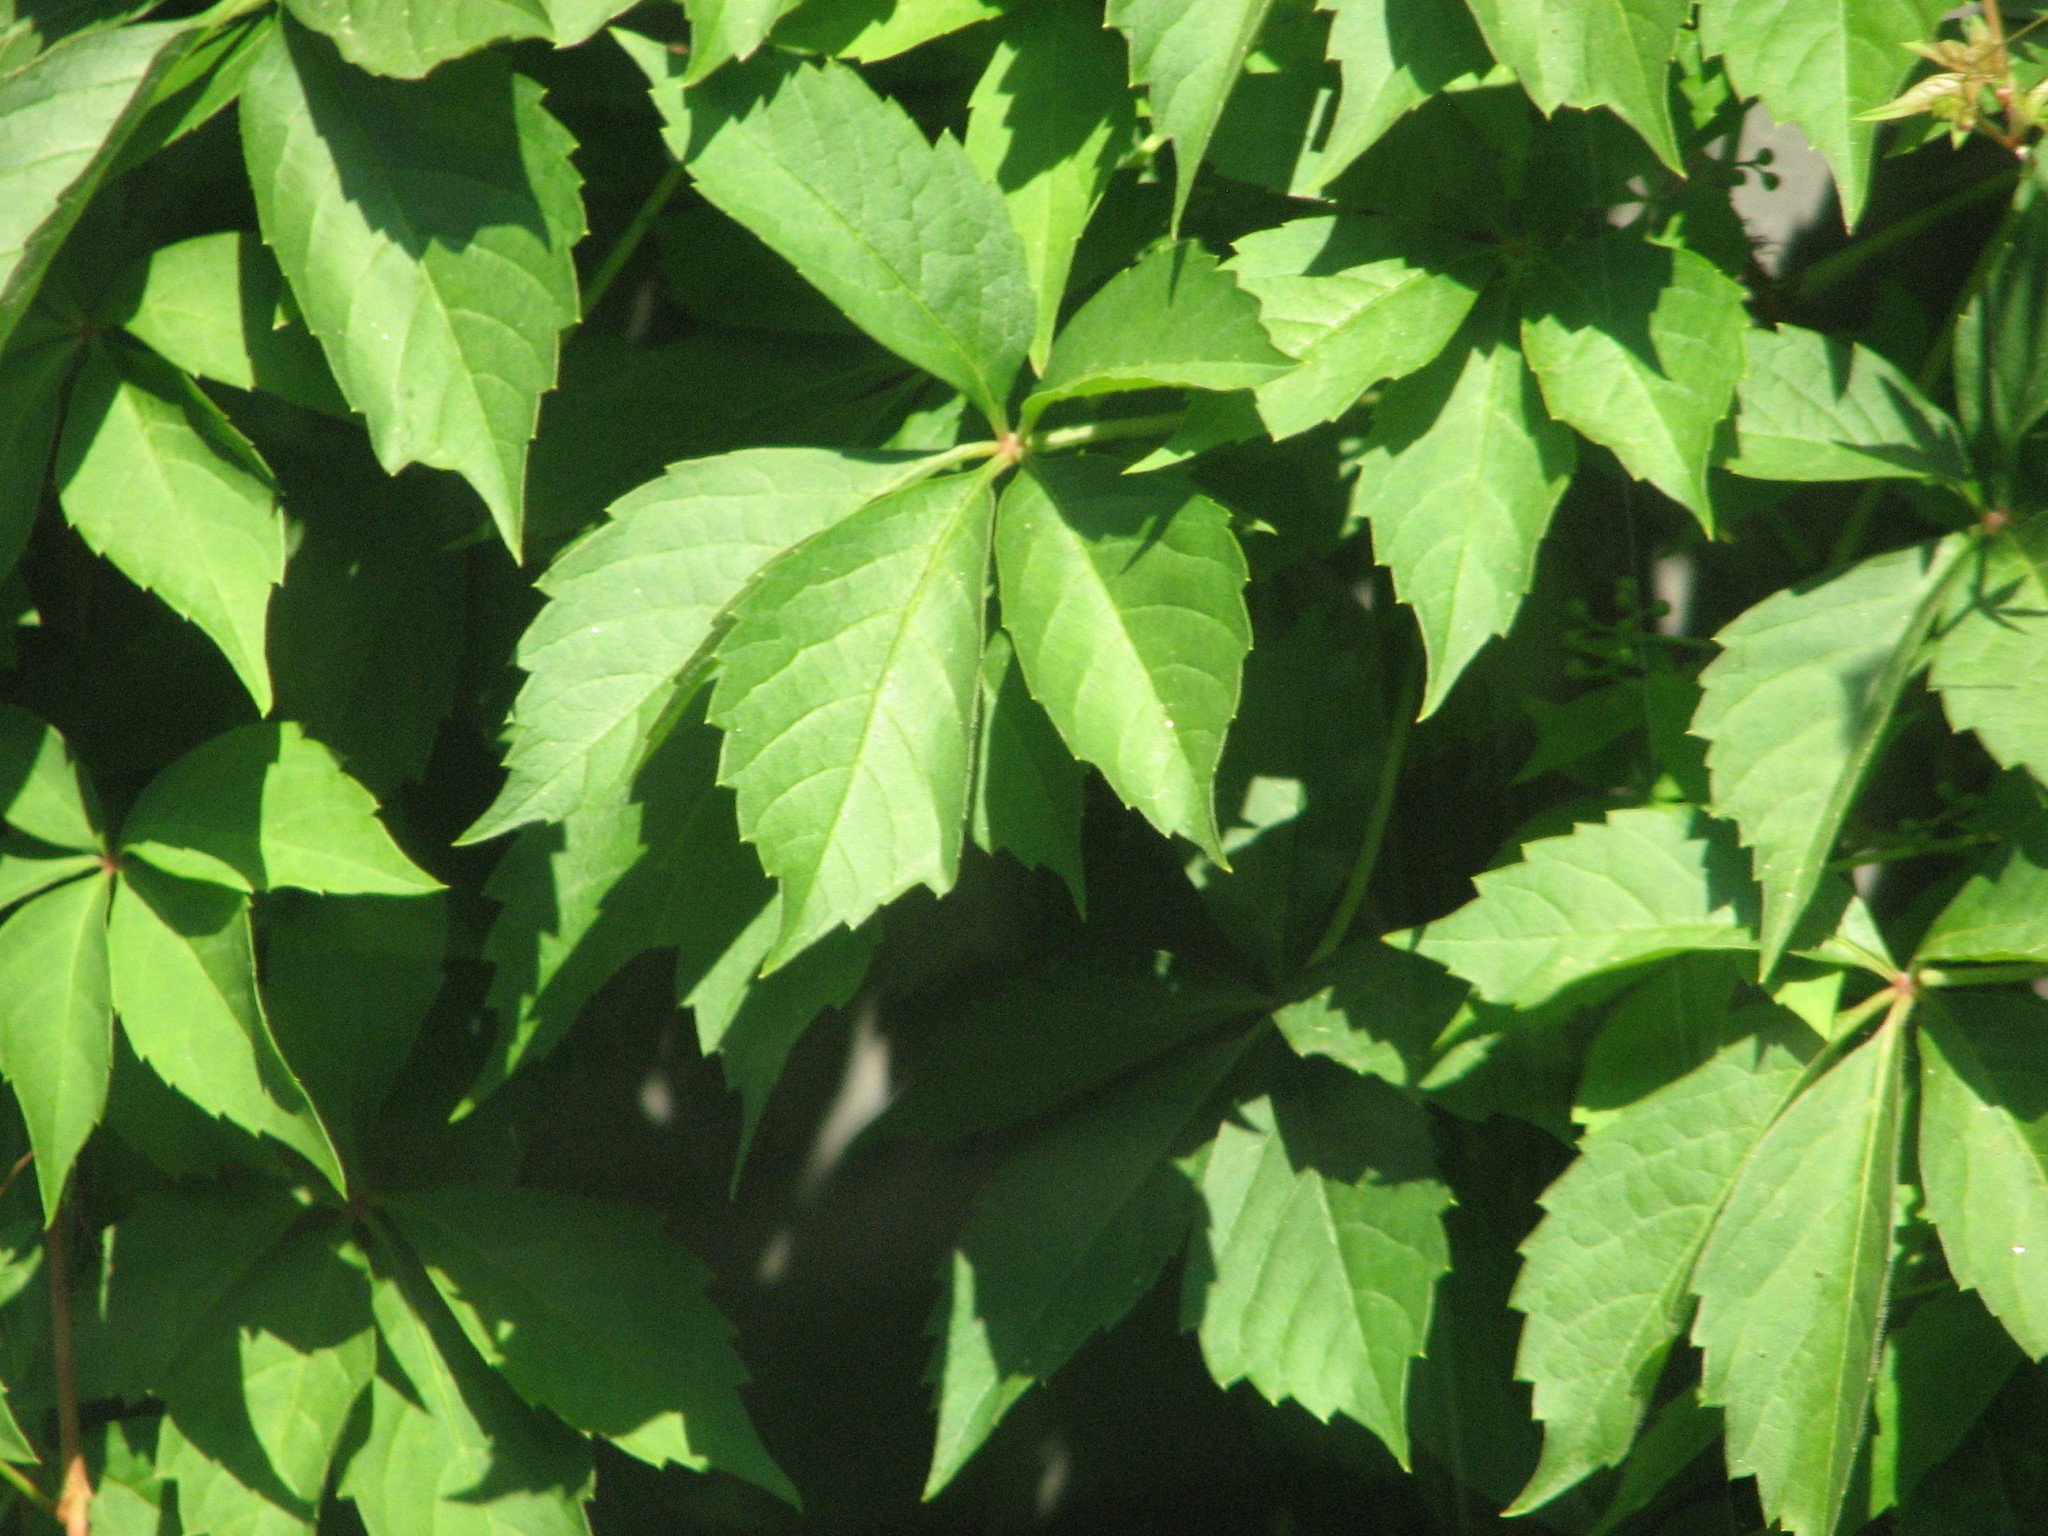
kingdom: Plantae
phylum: Tracheophyta
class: Magnoliopsida
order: Vitales
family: Vitaceae
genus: Parthenocissus
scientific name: Parthenocissus quinquefolia
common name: Virginia-creeper
